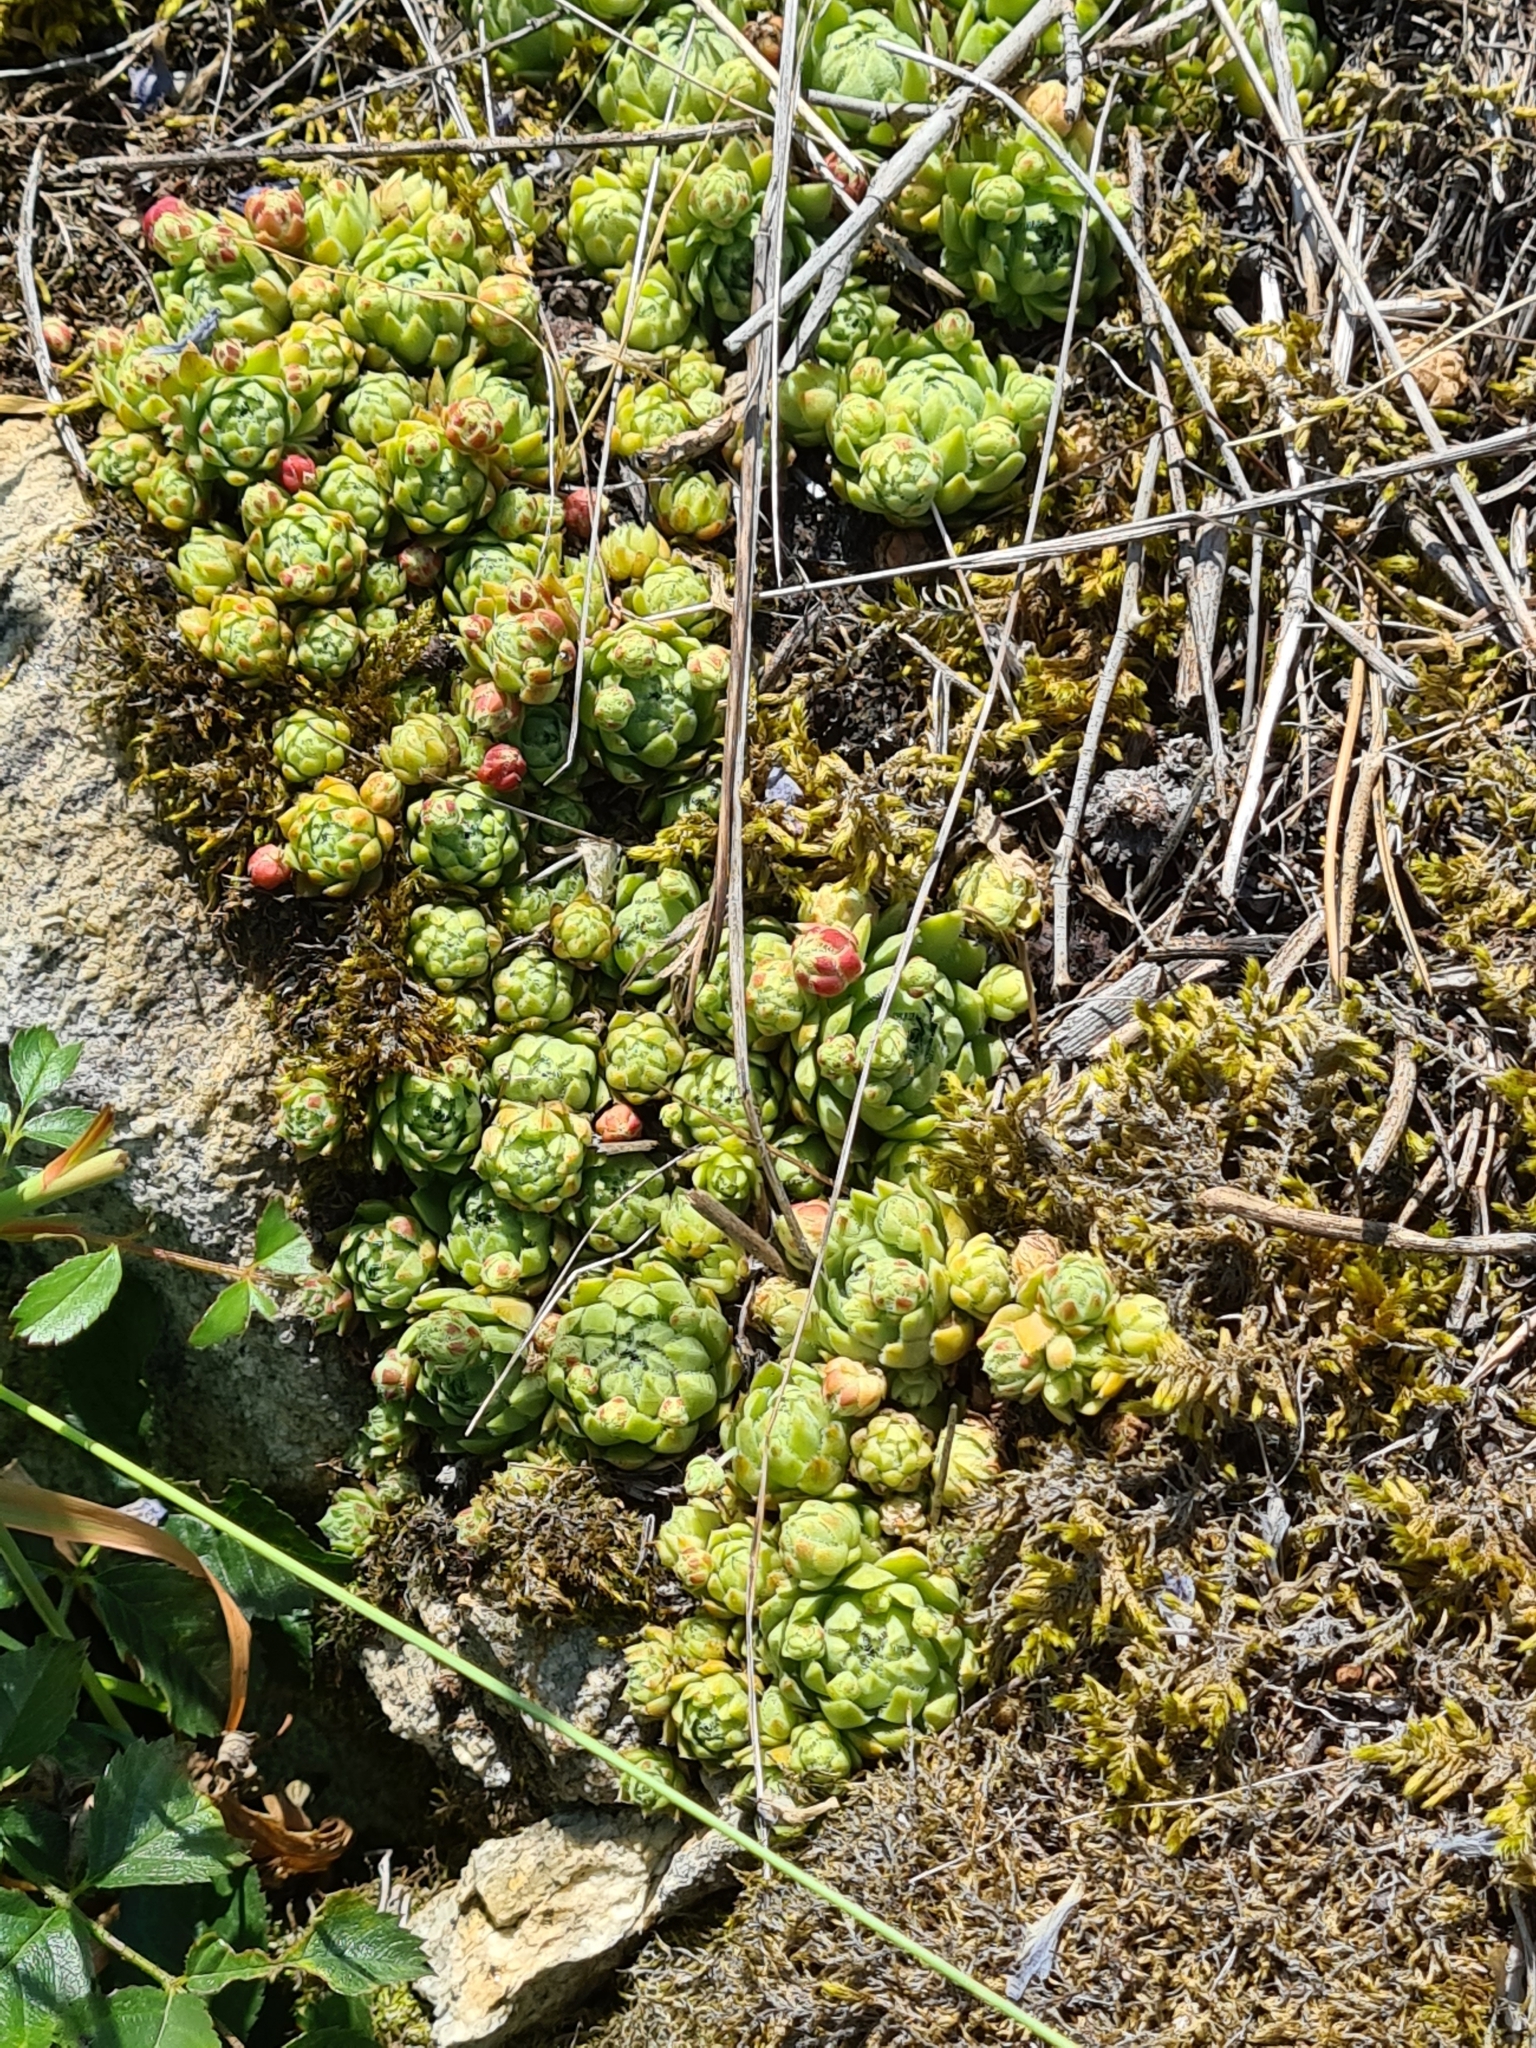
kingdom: Plantae
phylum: Tracheophyta
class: Magnoliopsida
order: Saxifragales
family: Crassulaceae
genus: Sempervivum
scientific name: Sempervivum globiferum
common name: Rolling hen-and-chicks
